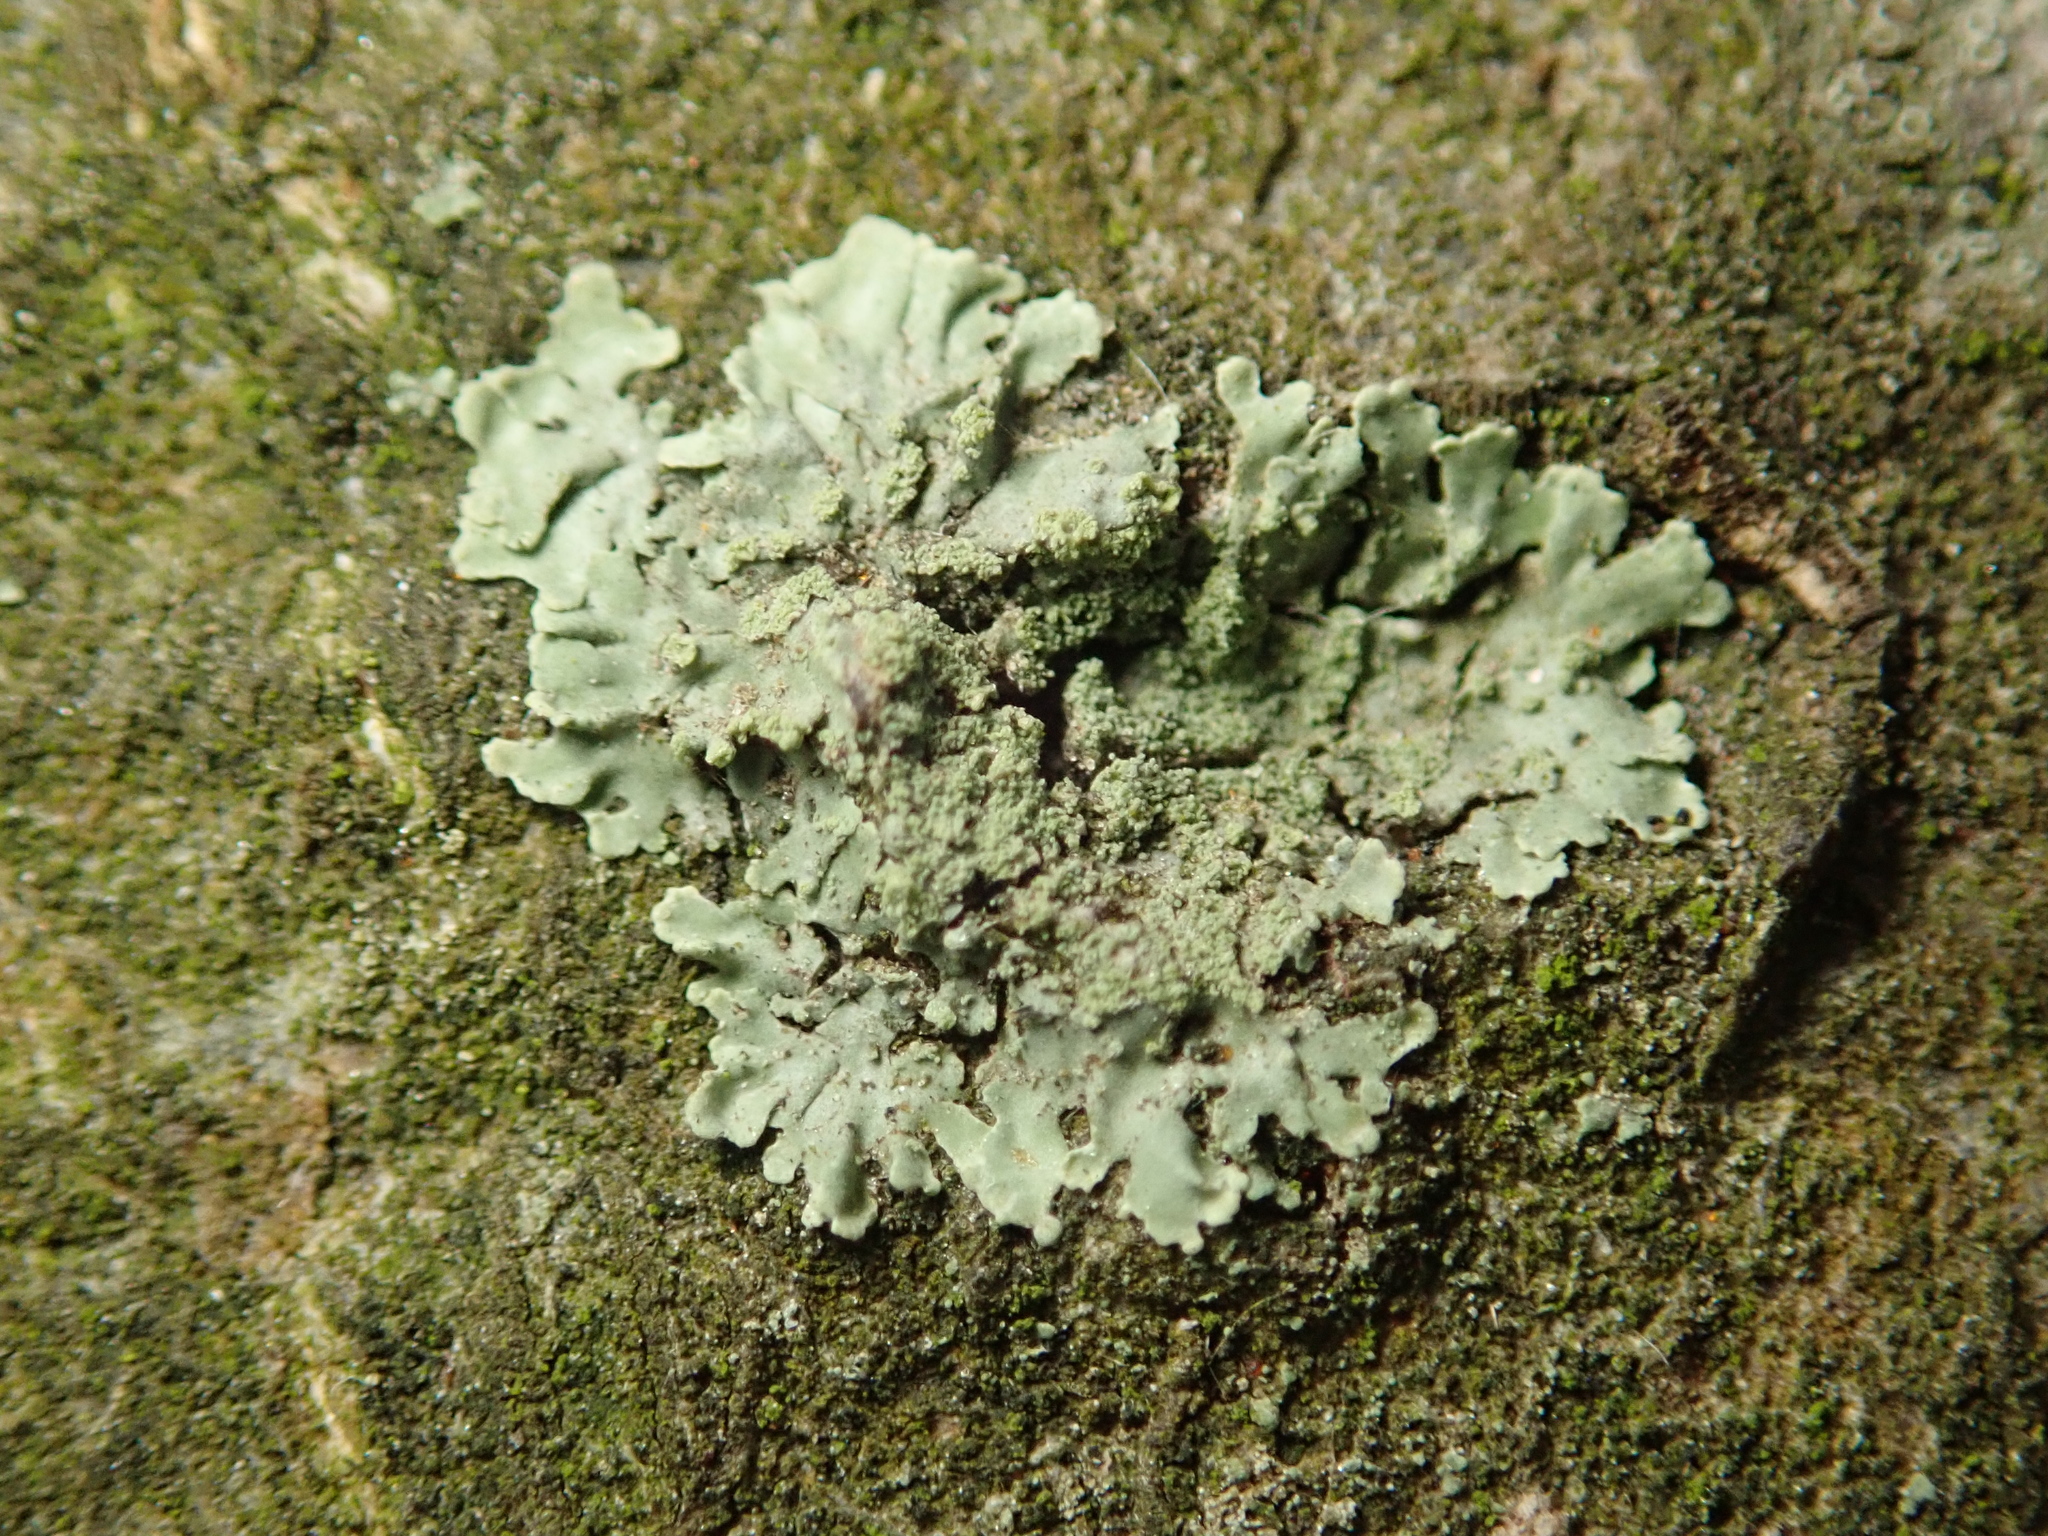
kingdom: Fungi
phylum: Ascomycota
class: Lecanoromycetes
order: Lecanorales
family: Parmeliaceae
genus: Parmeliopsis
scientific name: Parmeliopsis ambigua
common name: Green starburst lichen
